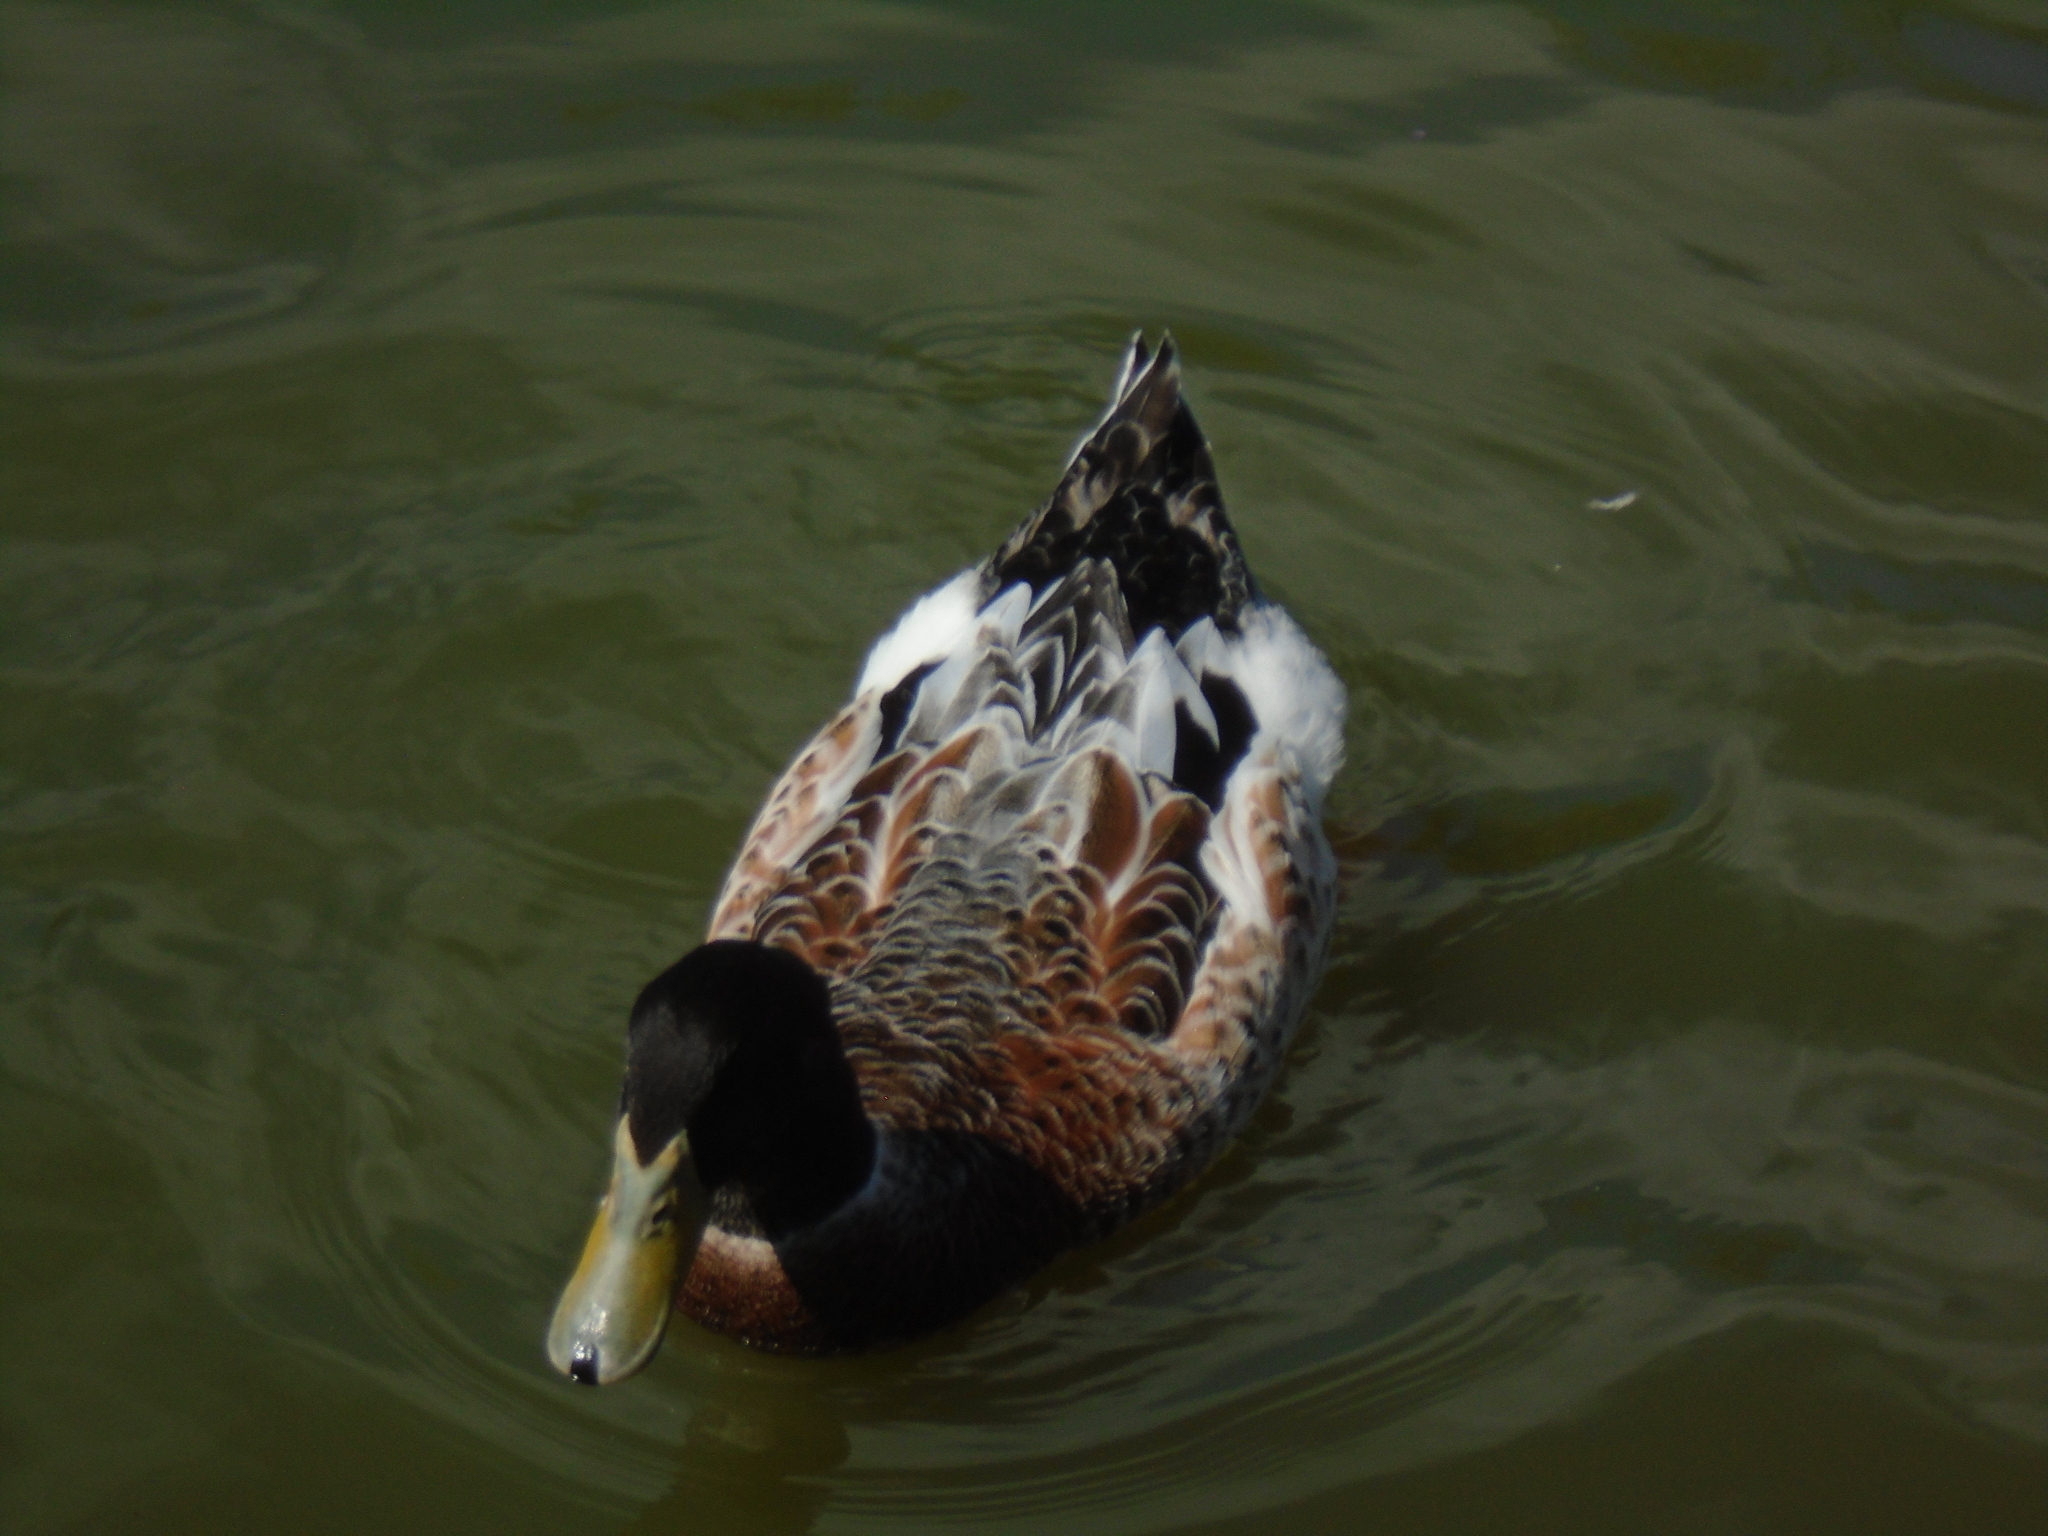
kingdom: Animalia
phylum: Chordata
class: Aves
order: Anseriformes
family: Anatidae
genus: Anas
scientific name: Anas platyrhynchos
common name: Mallard
